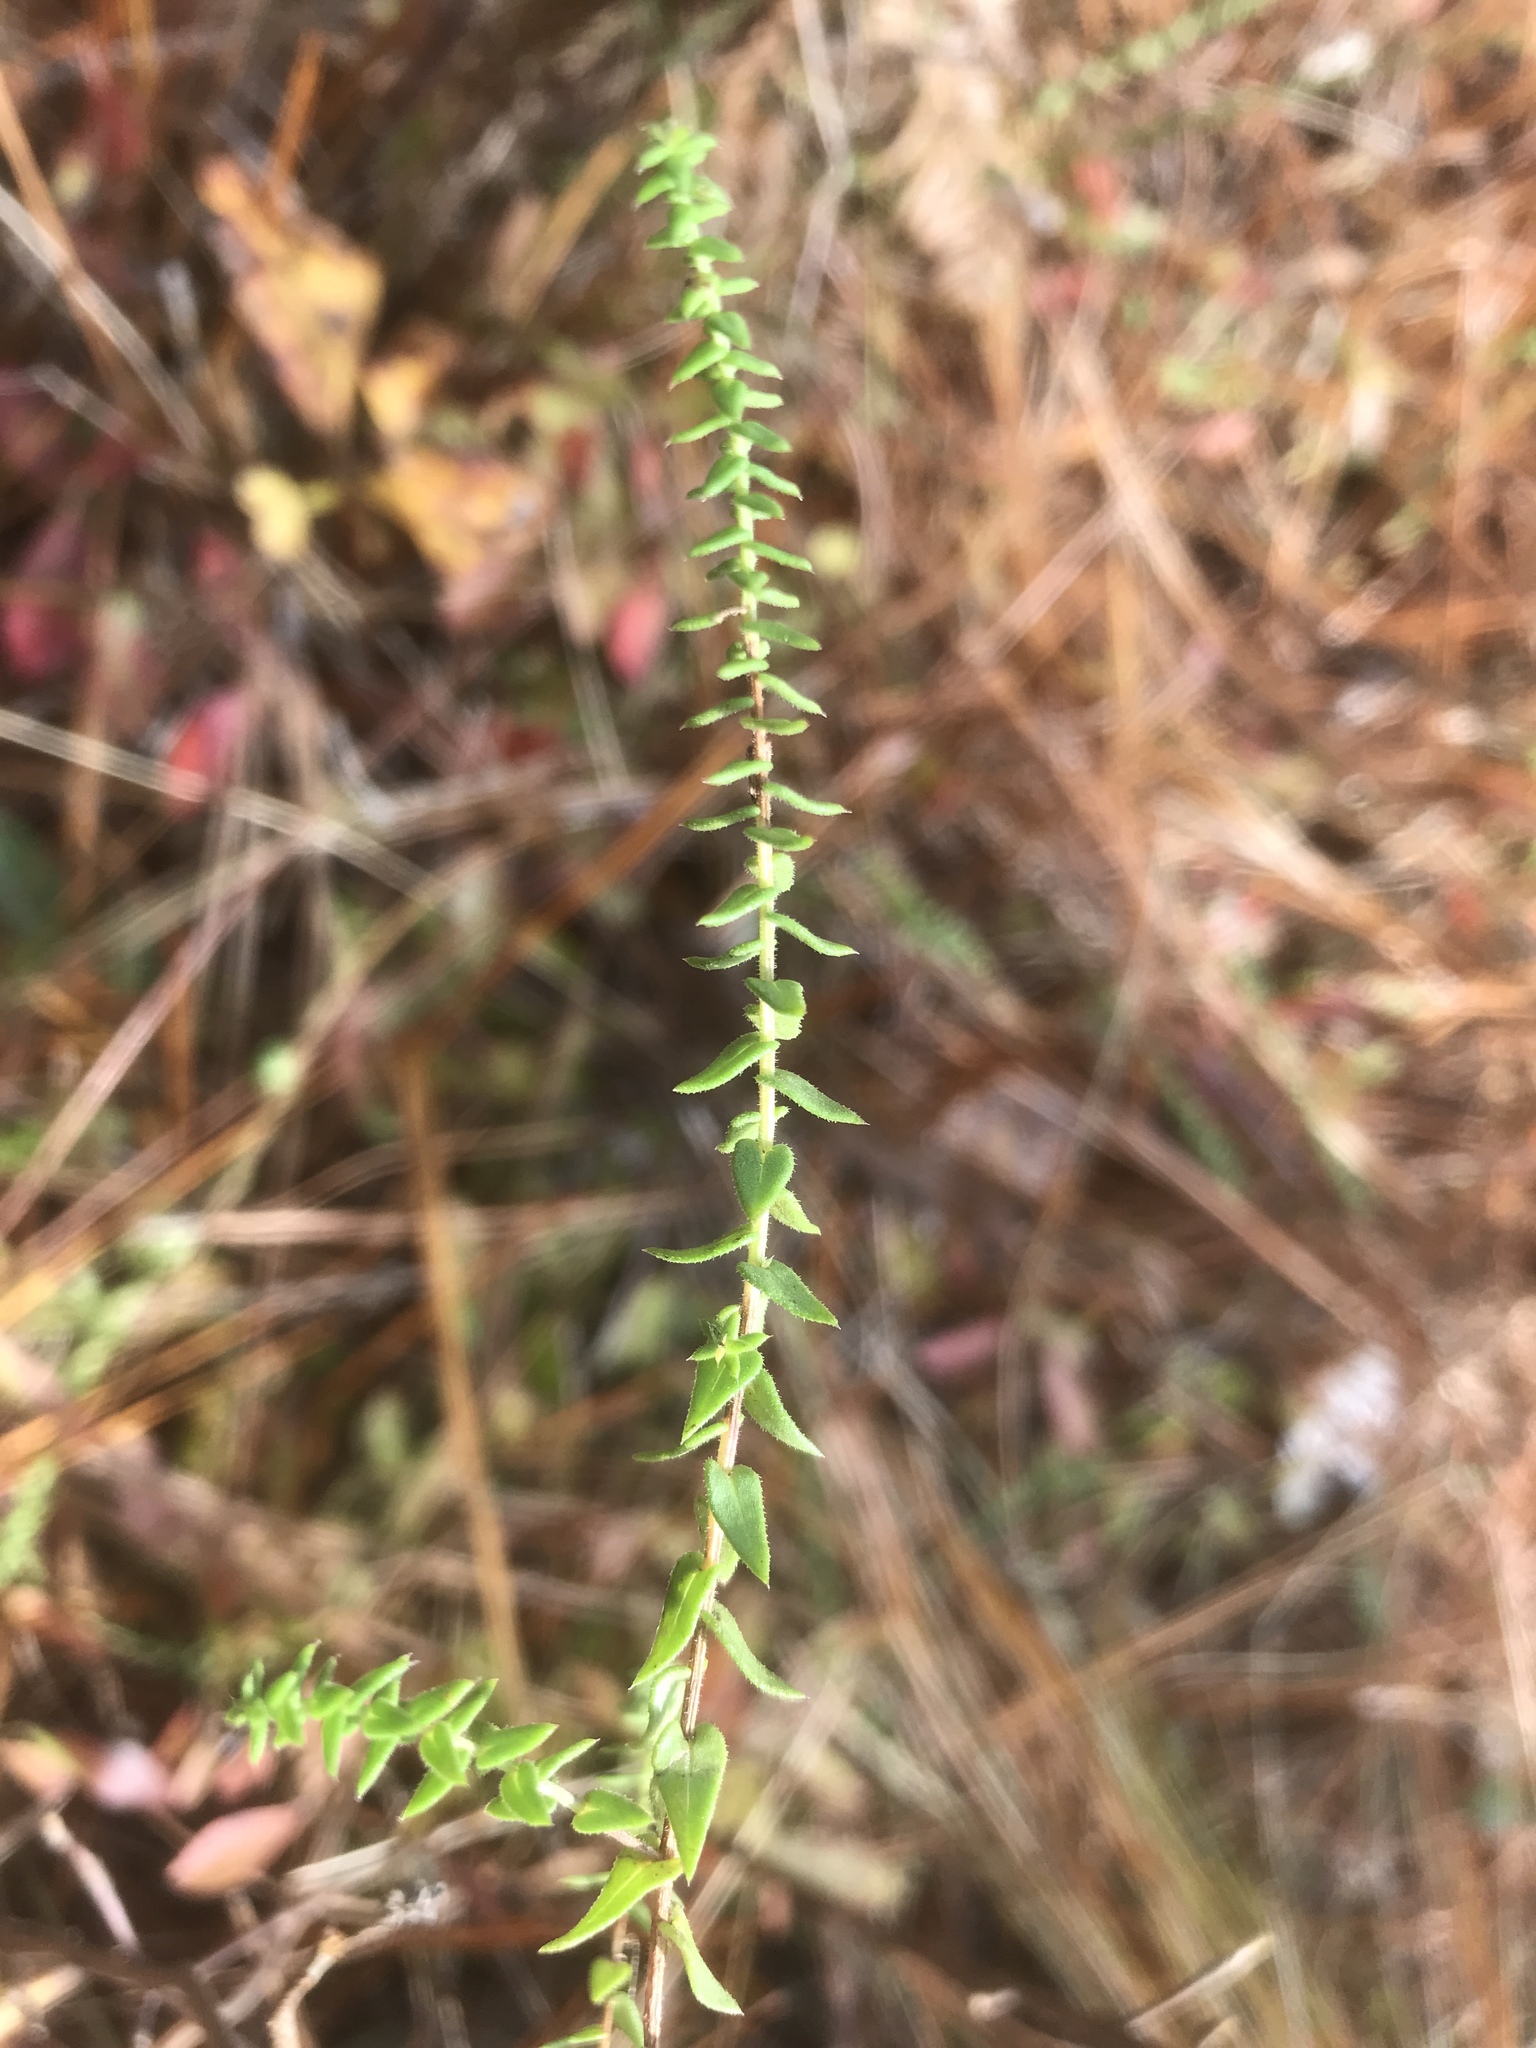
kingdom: Plantae
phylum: Tracheophyta
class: Magnoliopsida
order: Asterales
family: Asteraceae
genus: Symphyotrichum
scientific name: Symphyotrichum walteri
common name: Walter's aster
